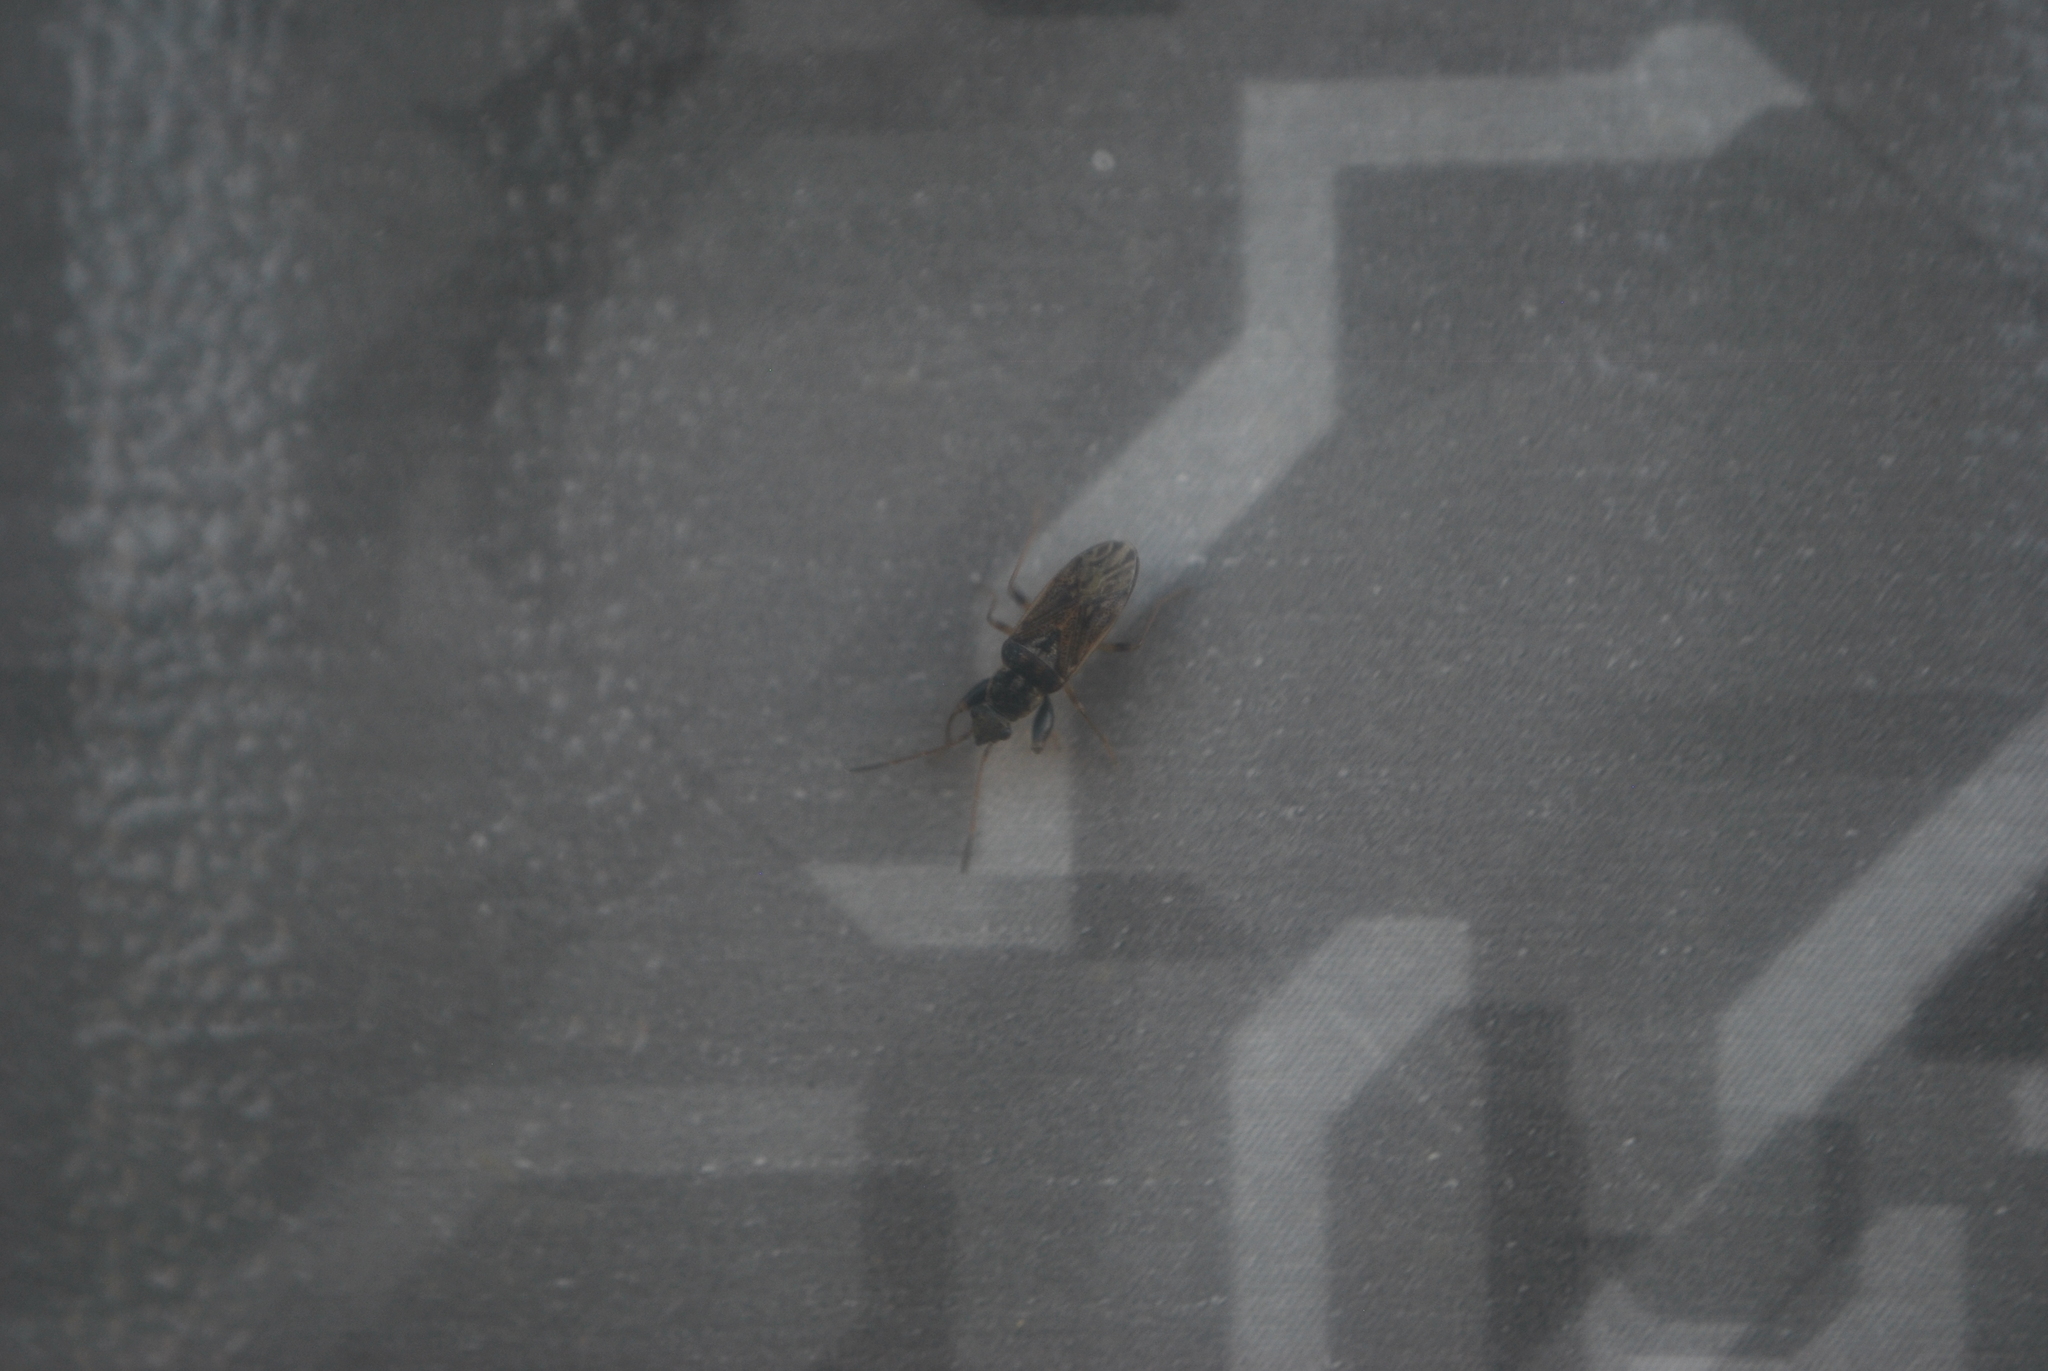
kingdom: Animalia
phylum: Arthropoda
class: Insecta
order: Hemiptera
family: Rhyparochromidae
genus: Pseudopachybrachius
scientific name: Pseudopachybrachius basalis
